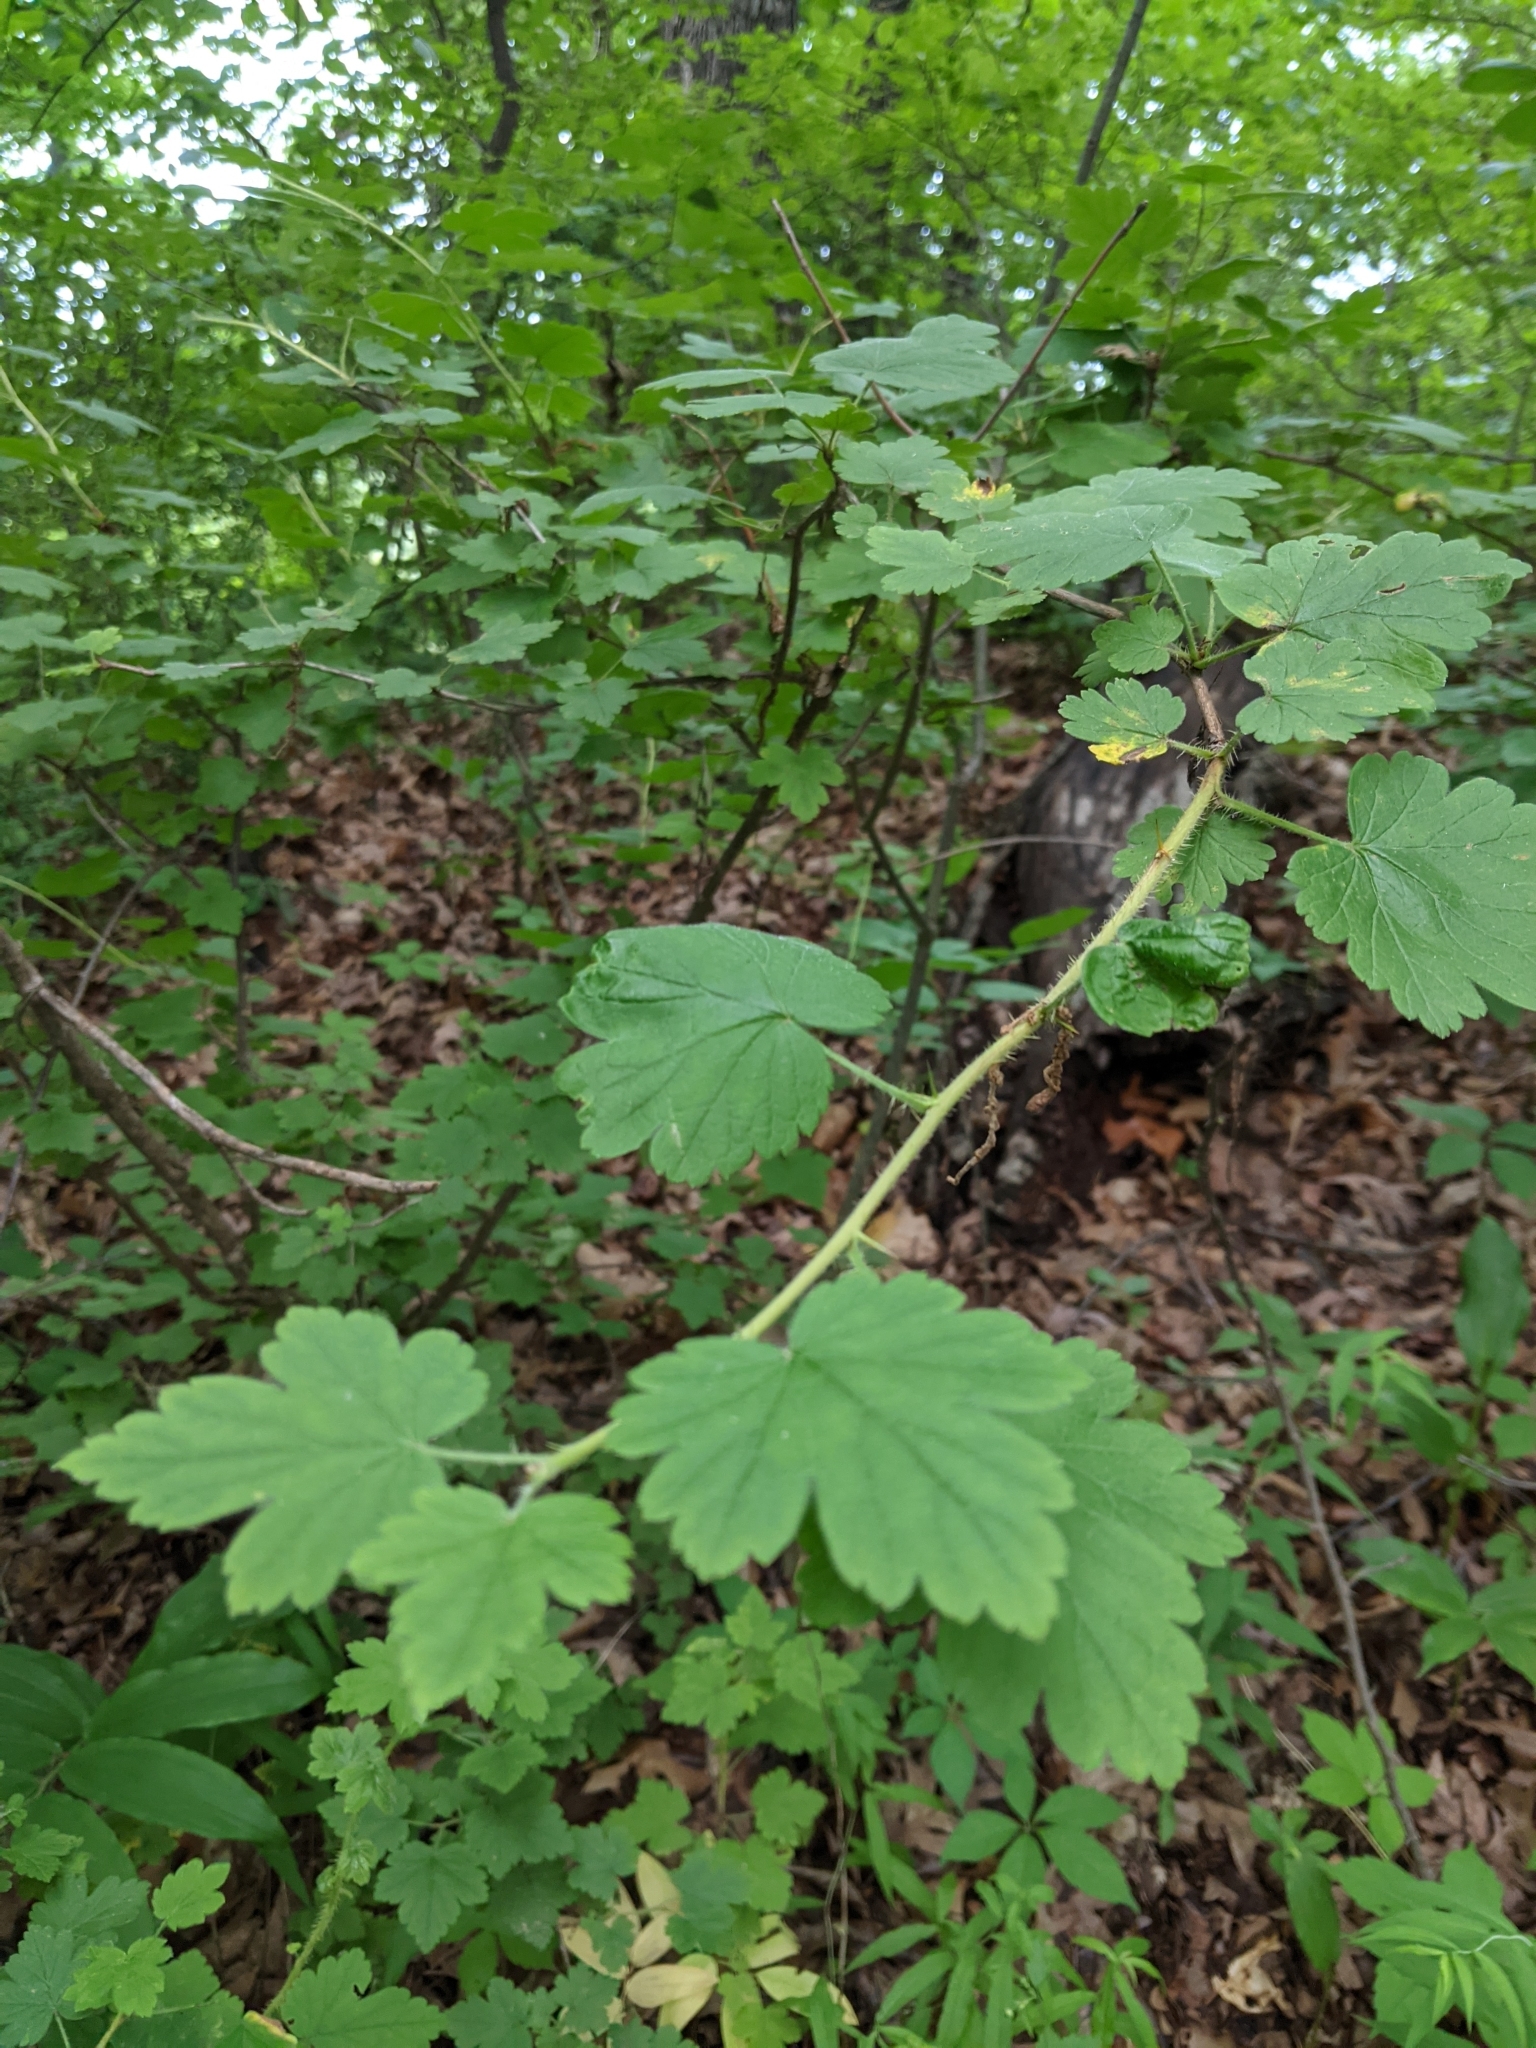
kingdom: Plantae
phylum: Tracheophyta
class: Magnoliopsida
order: Saxifragales
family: Grossulariaceae
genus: Ribes
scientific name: Ribes cynosbati
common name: American gooseberry
